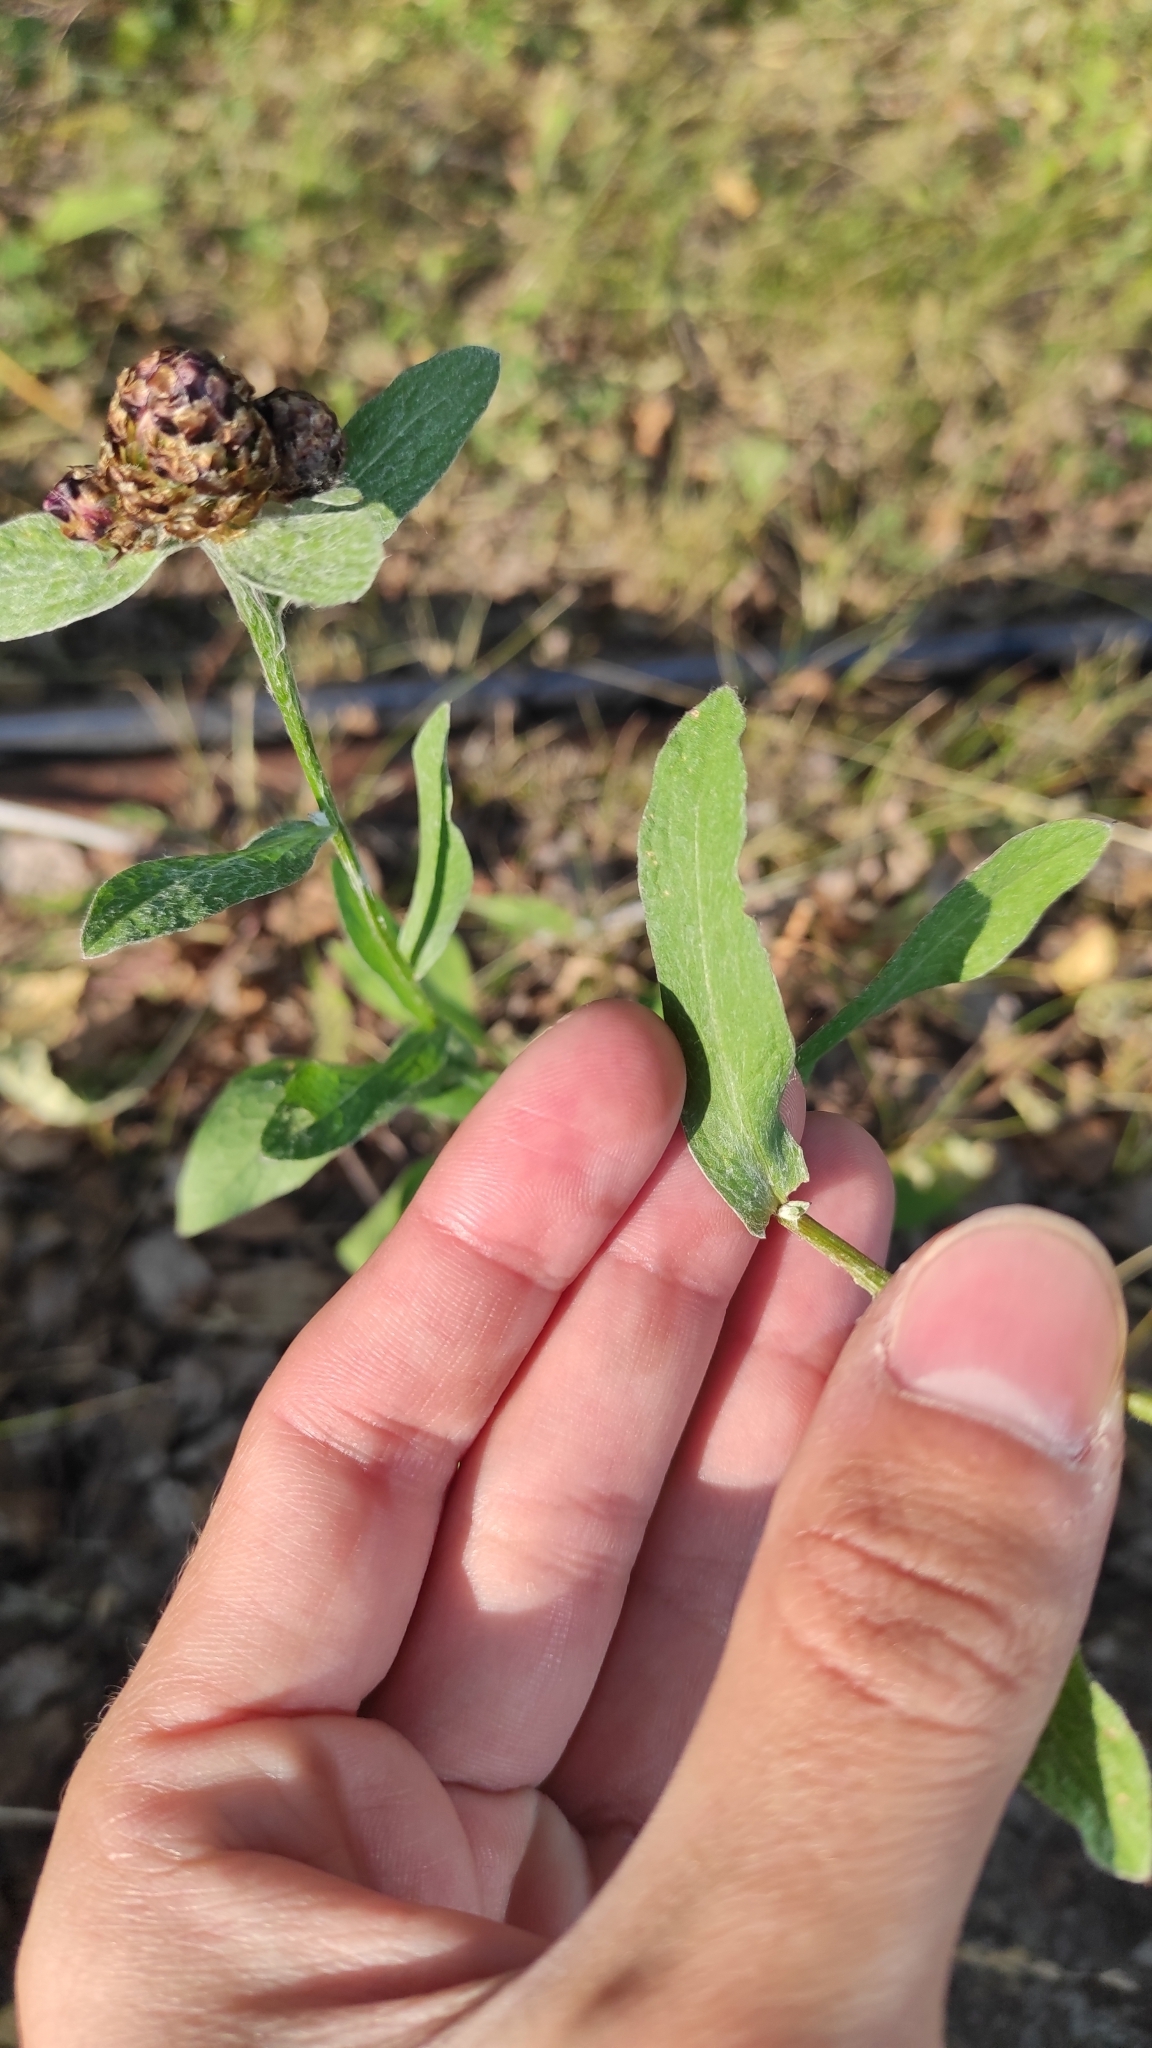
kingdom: Plantae
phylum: Tracheophyta
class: Magnoliopsida
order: Asterales
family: Asteraceae
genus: Centaurea
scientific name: Centaurea jacea
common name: Brown knapweed
